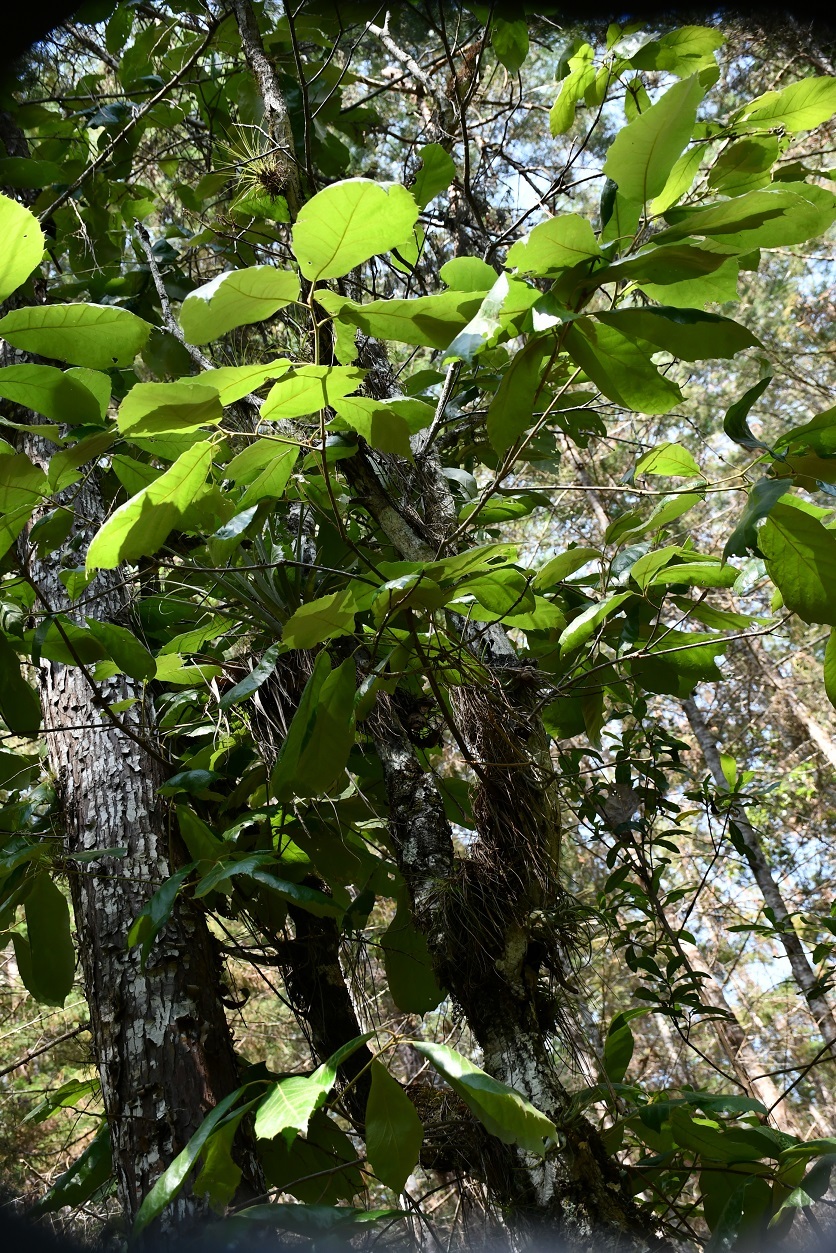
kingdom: Plantae
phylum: Tracheophyta
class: Magnoliopsida
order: Fagales
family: Fagaceae
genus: Quercus
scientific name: Quercus calophylla
